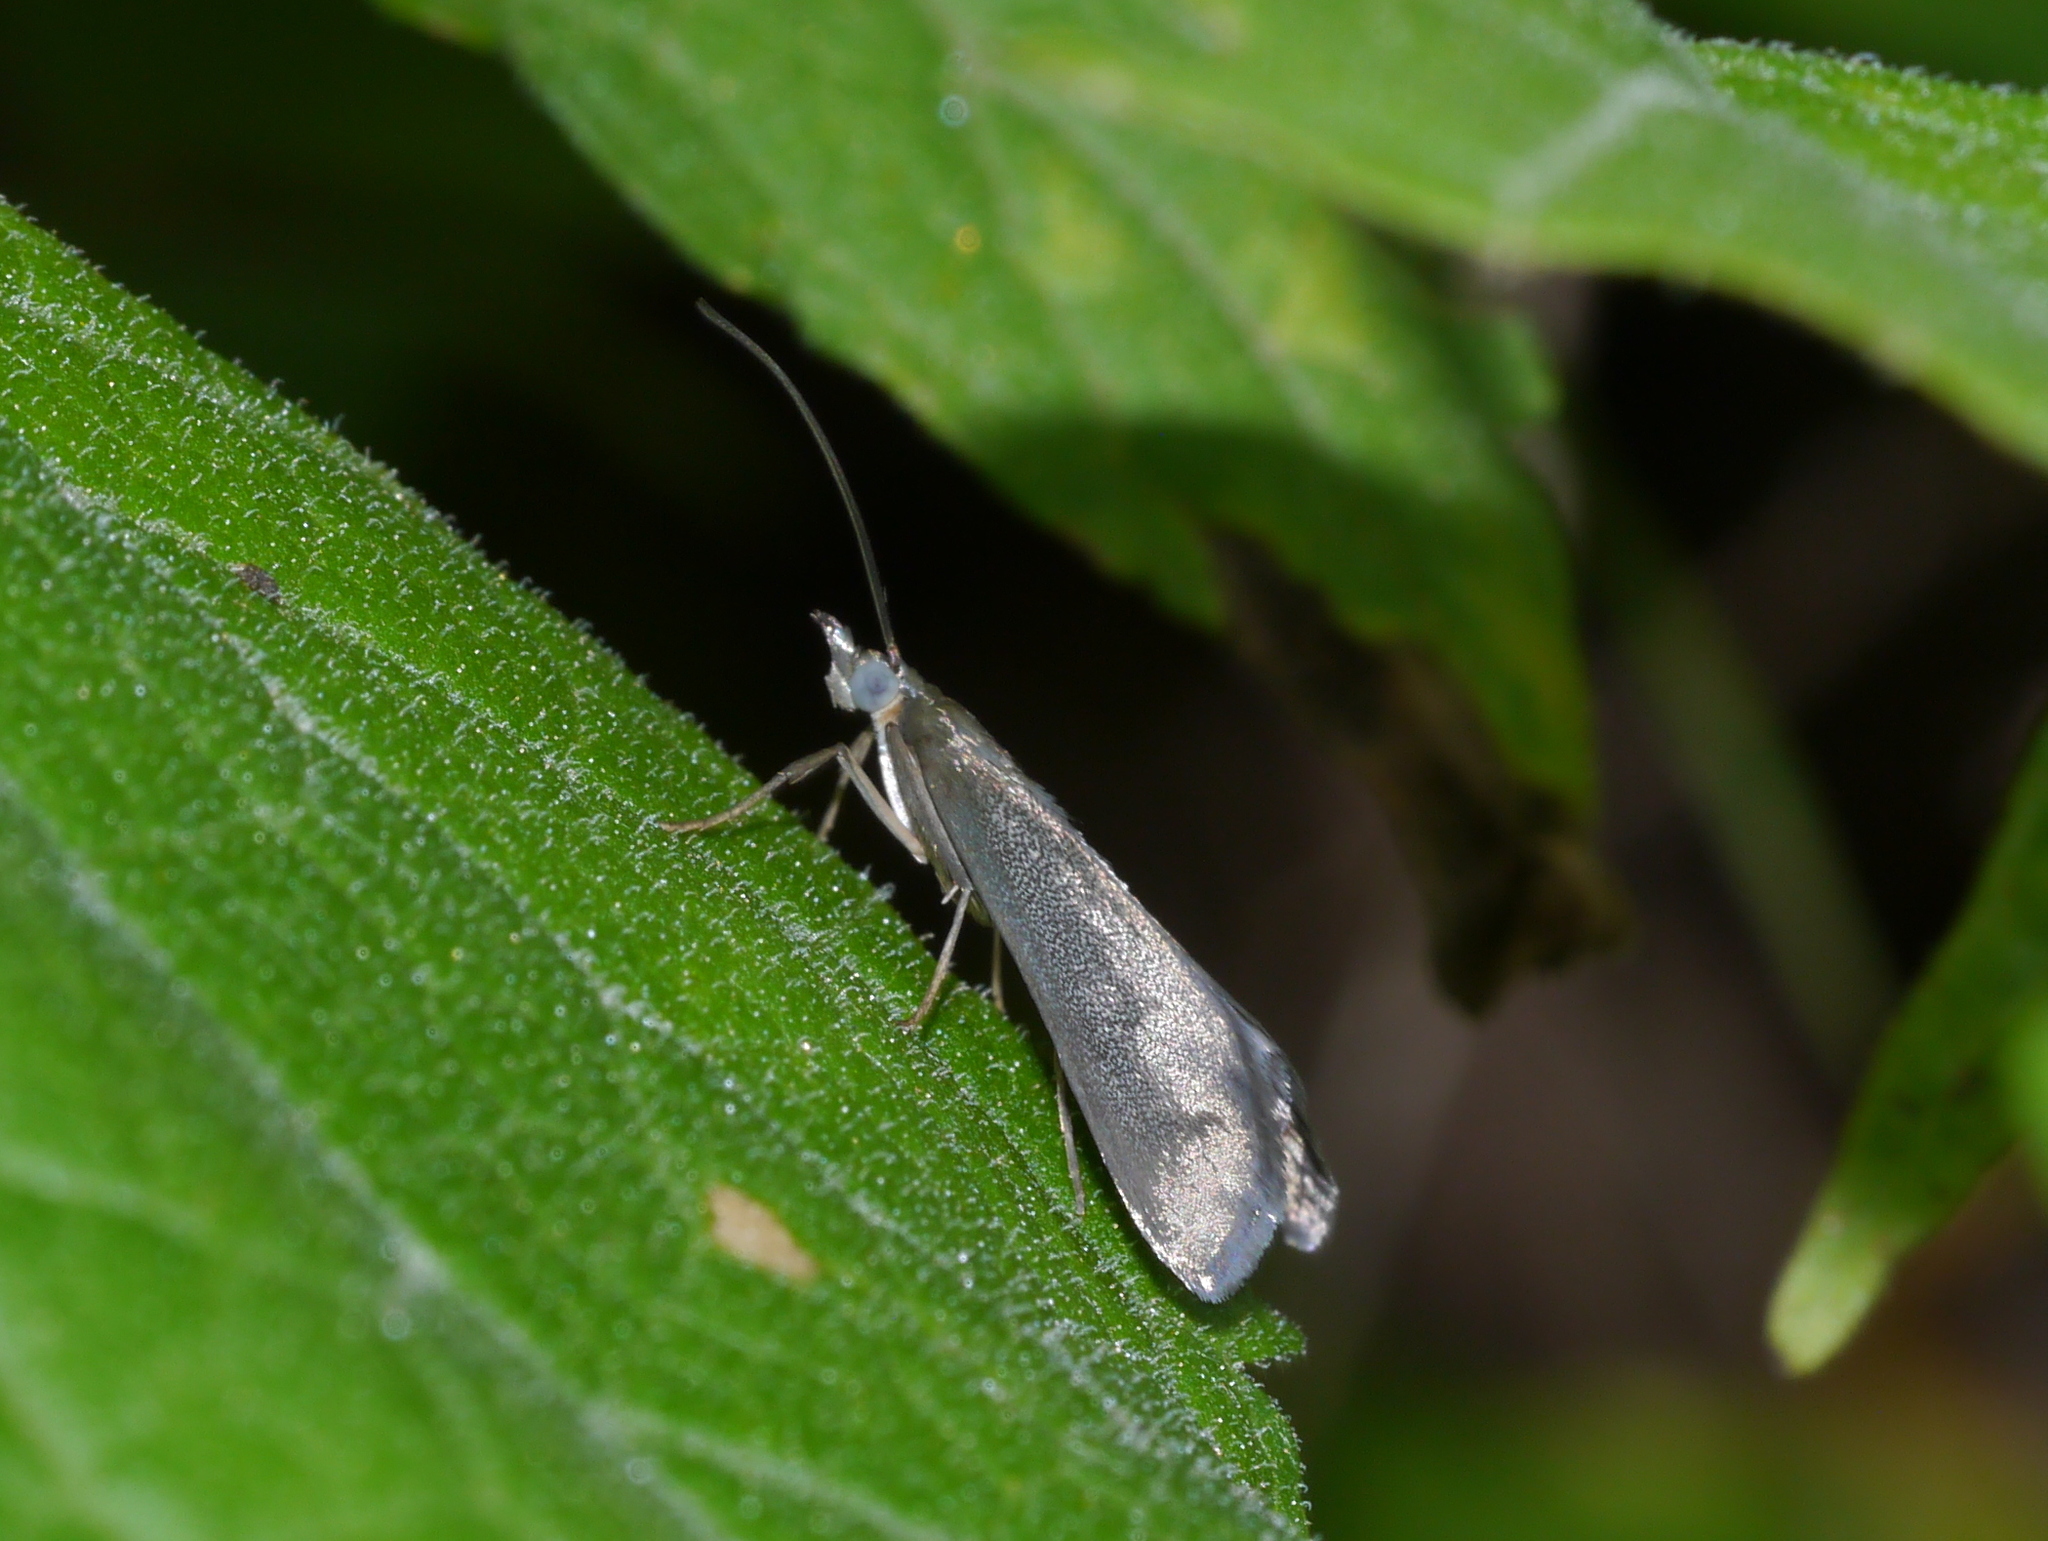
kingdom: Animalia
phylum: Arthropoda
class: Insecta
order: Lepidoptera
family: Crambidae
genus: Pyrausta
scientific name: Pyrausta demantrialis
